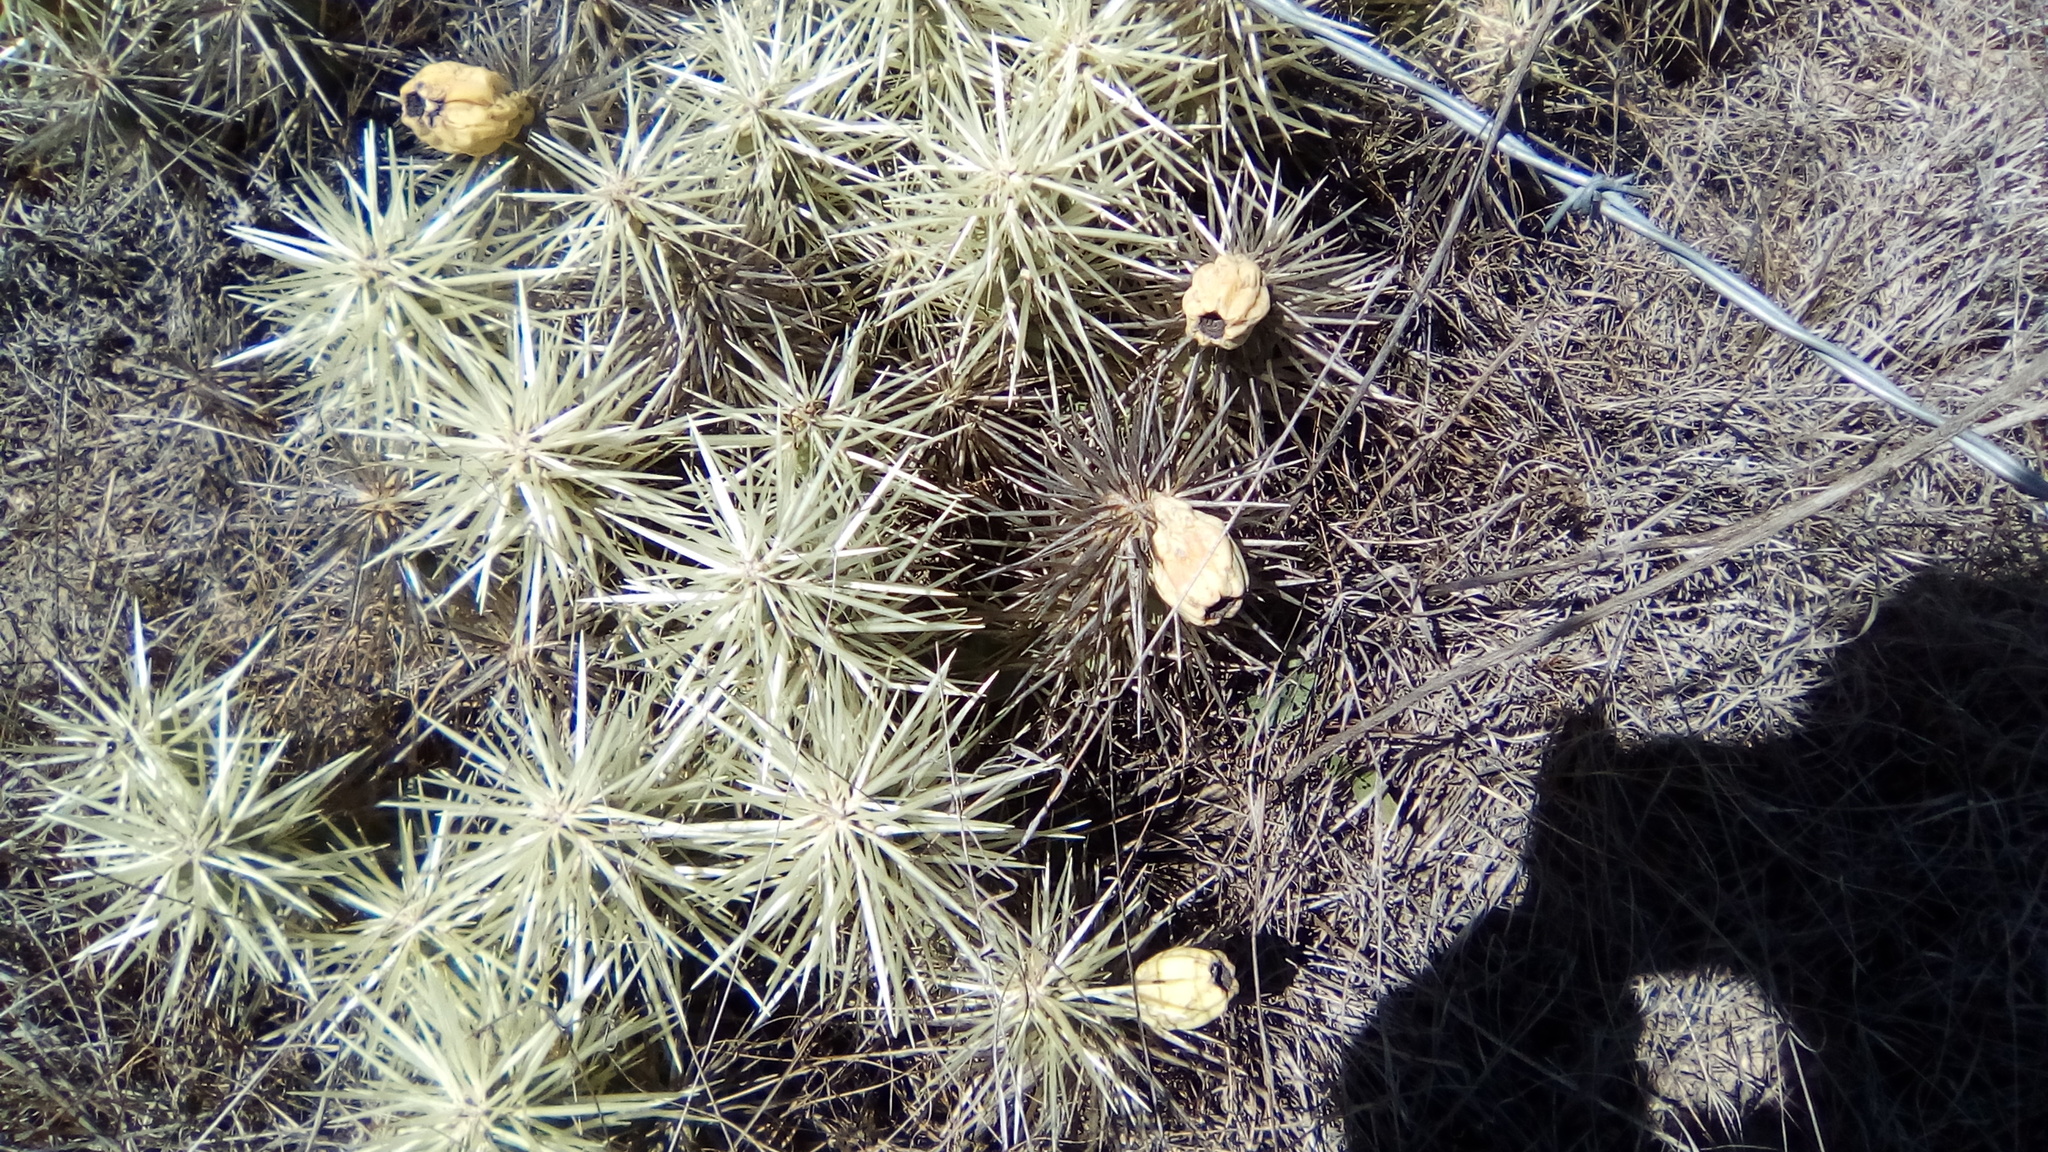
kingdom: Plantae
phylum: Tracheophyta
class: Magnoliopsida
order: Caryophyllales
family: Cactaceae
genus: Cylindropuntia
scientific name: Cylindropuntia tunicata
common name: Sheathed cholla
